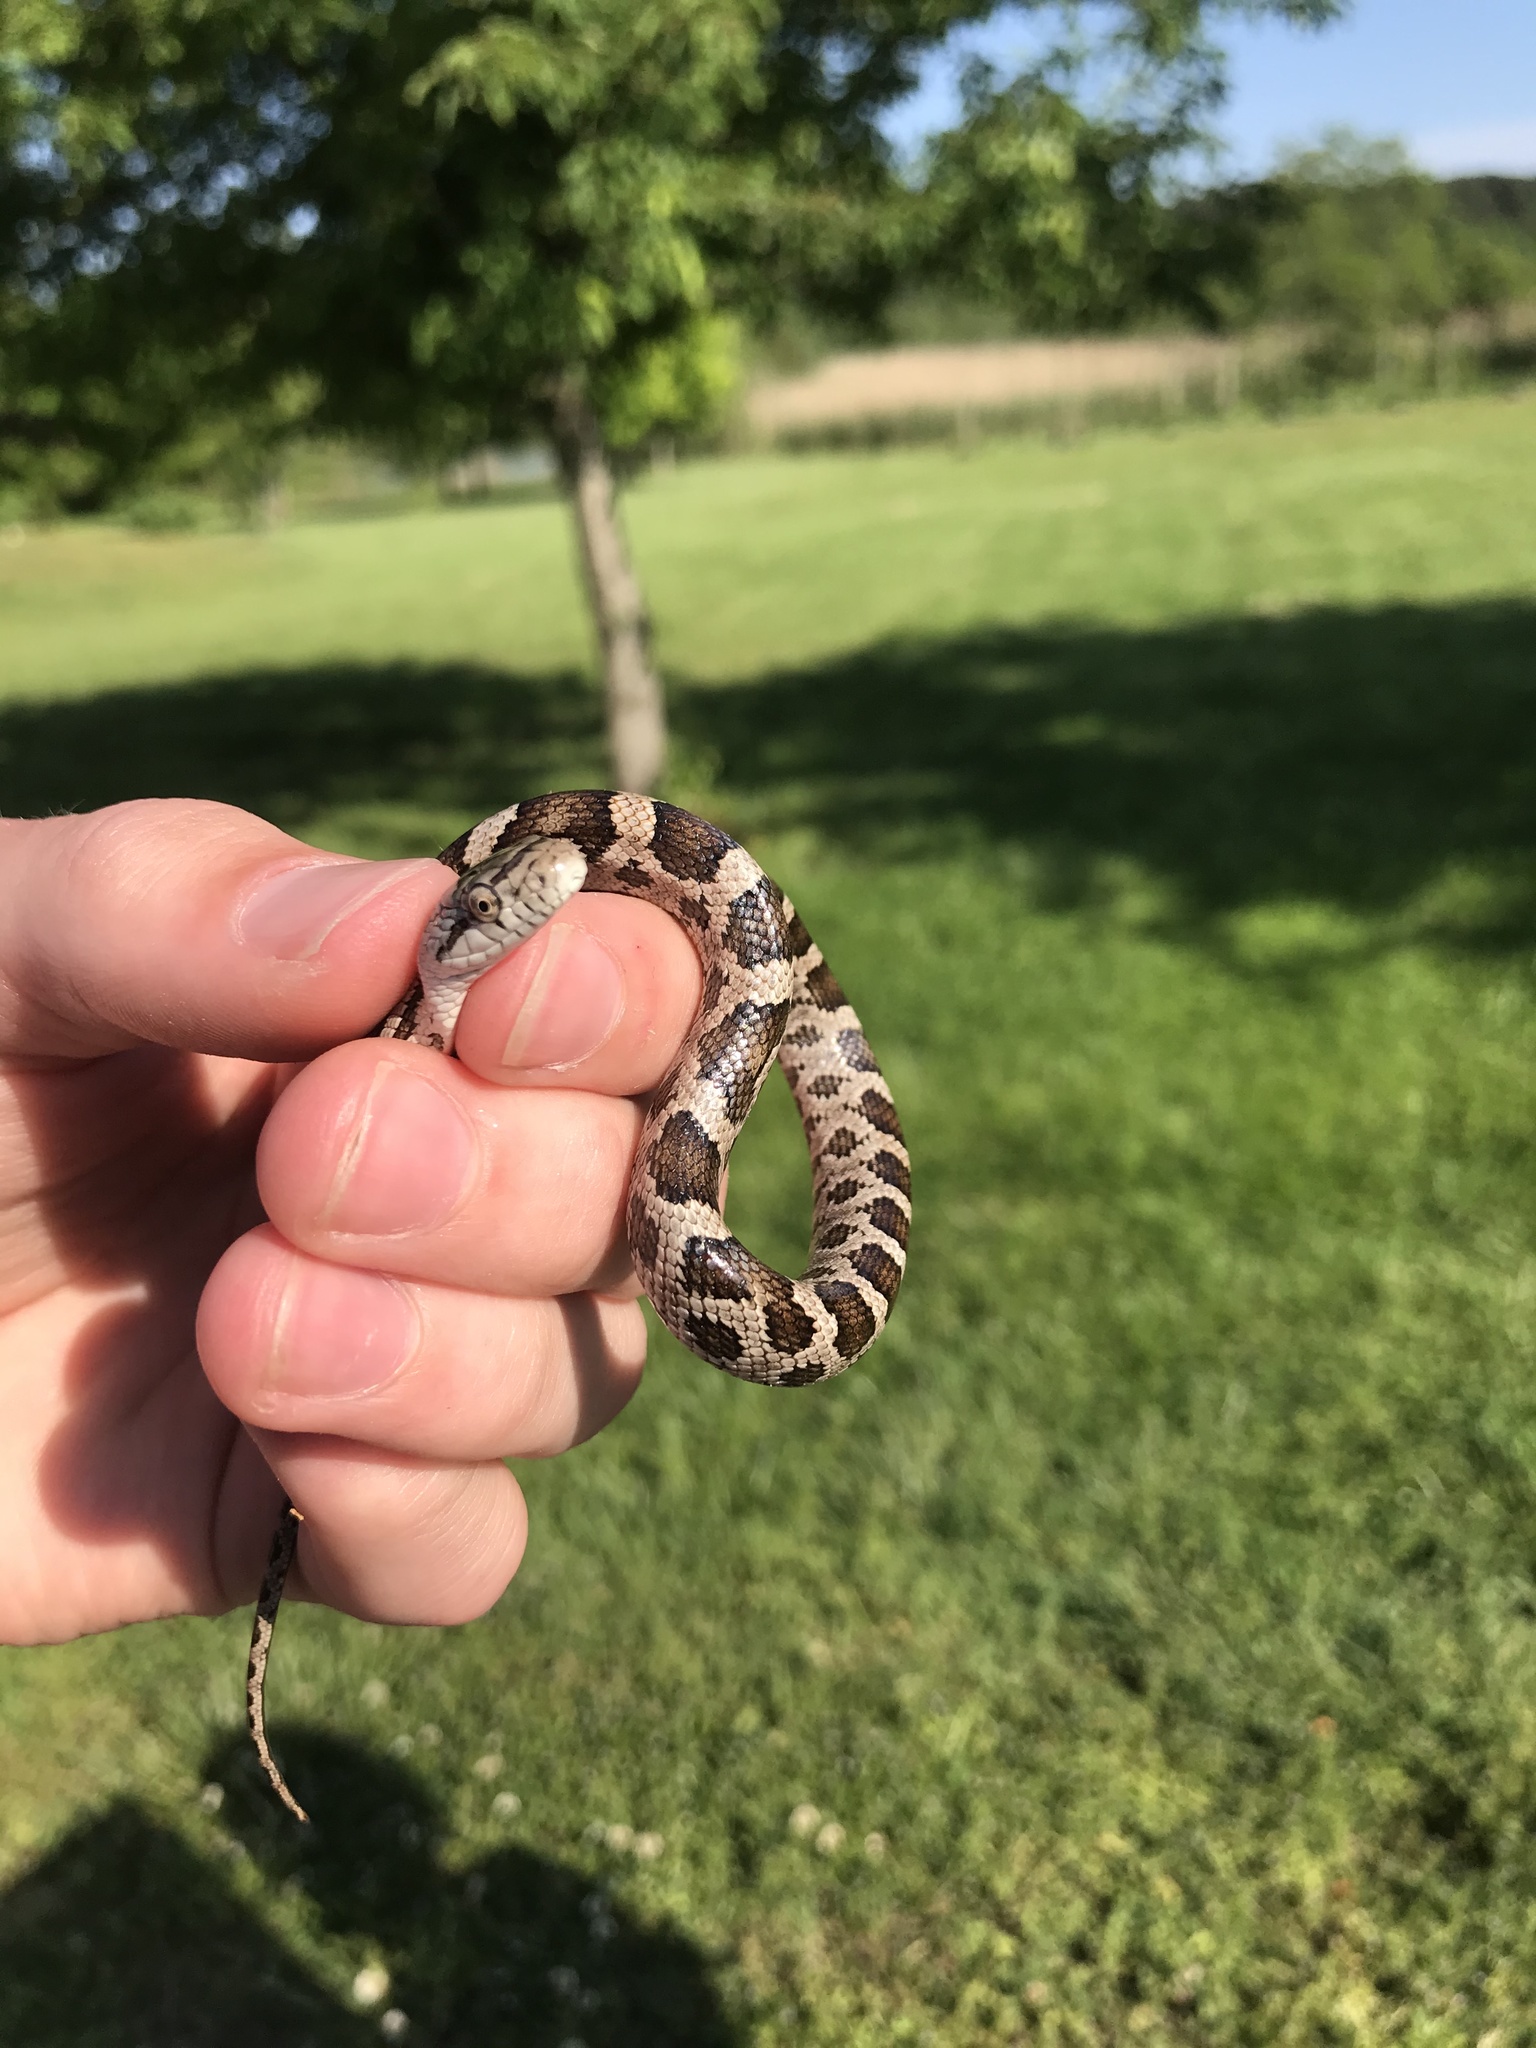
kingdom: Animalia
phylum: Chordata
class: Squamata
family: Colubridae
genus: Pantherophis
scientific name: Pantherophis alleghaniensis
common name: Eastern rat snake
